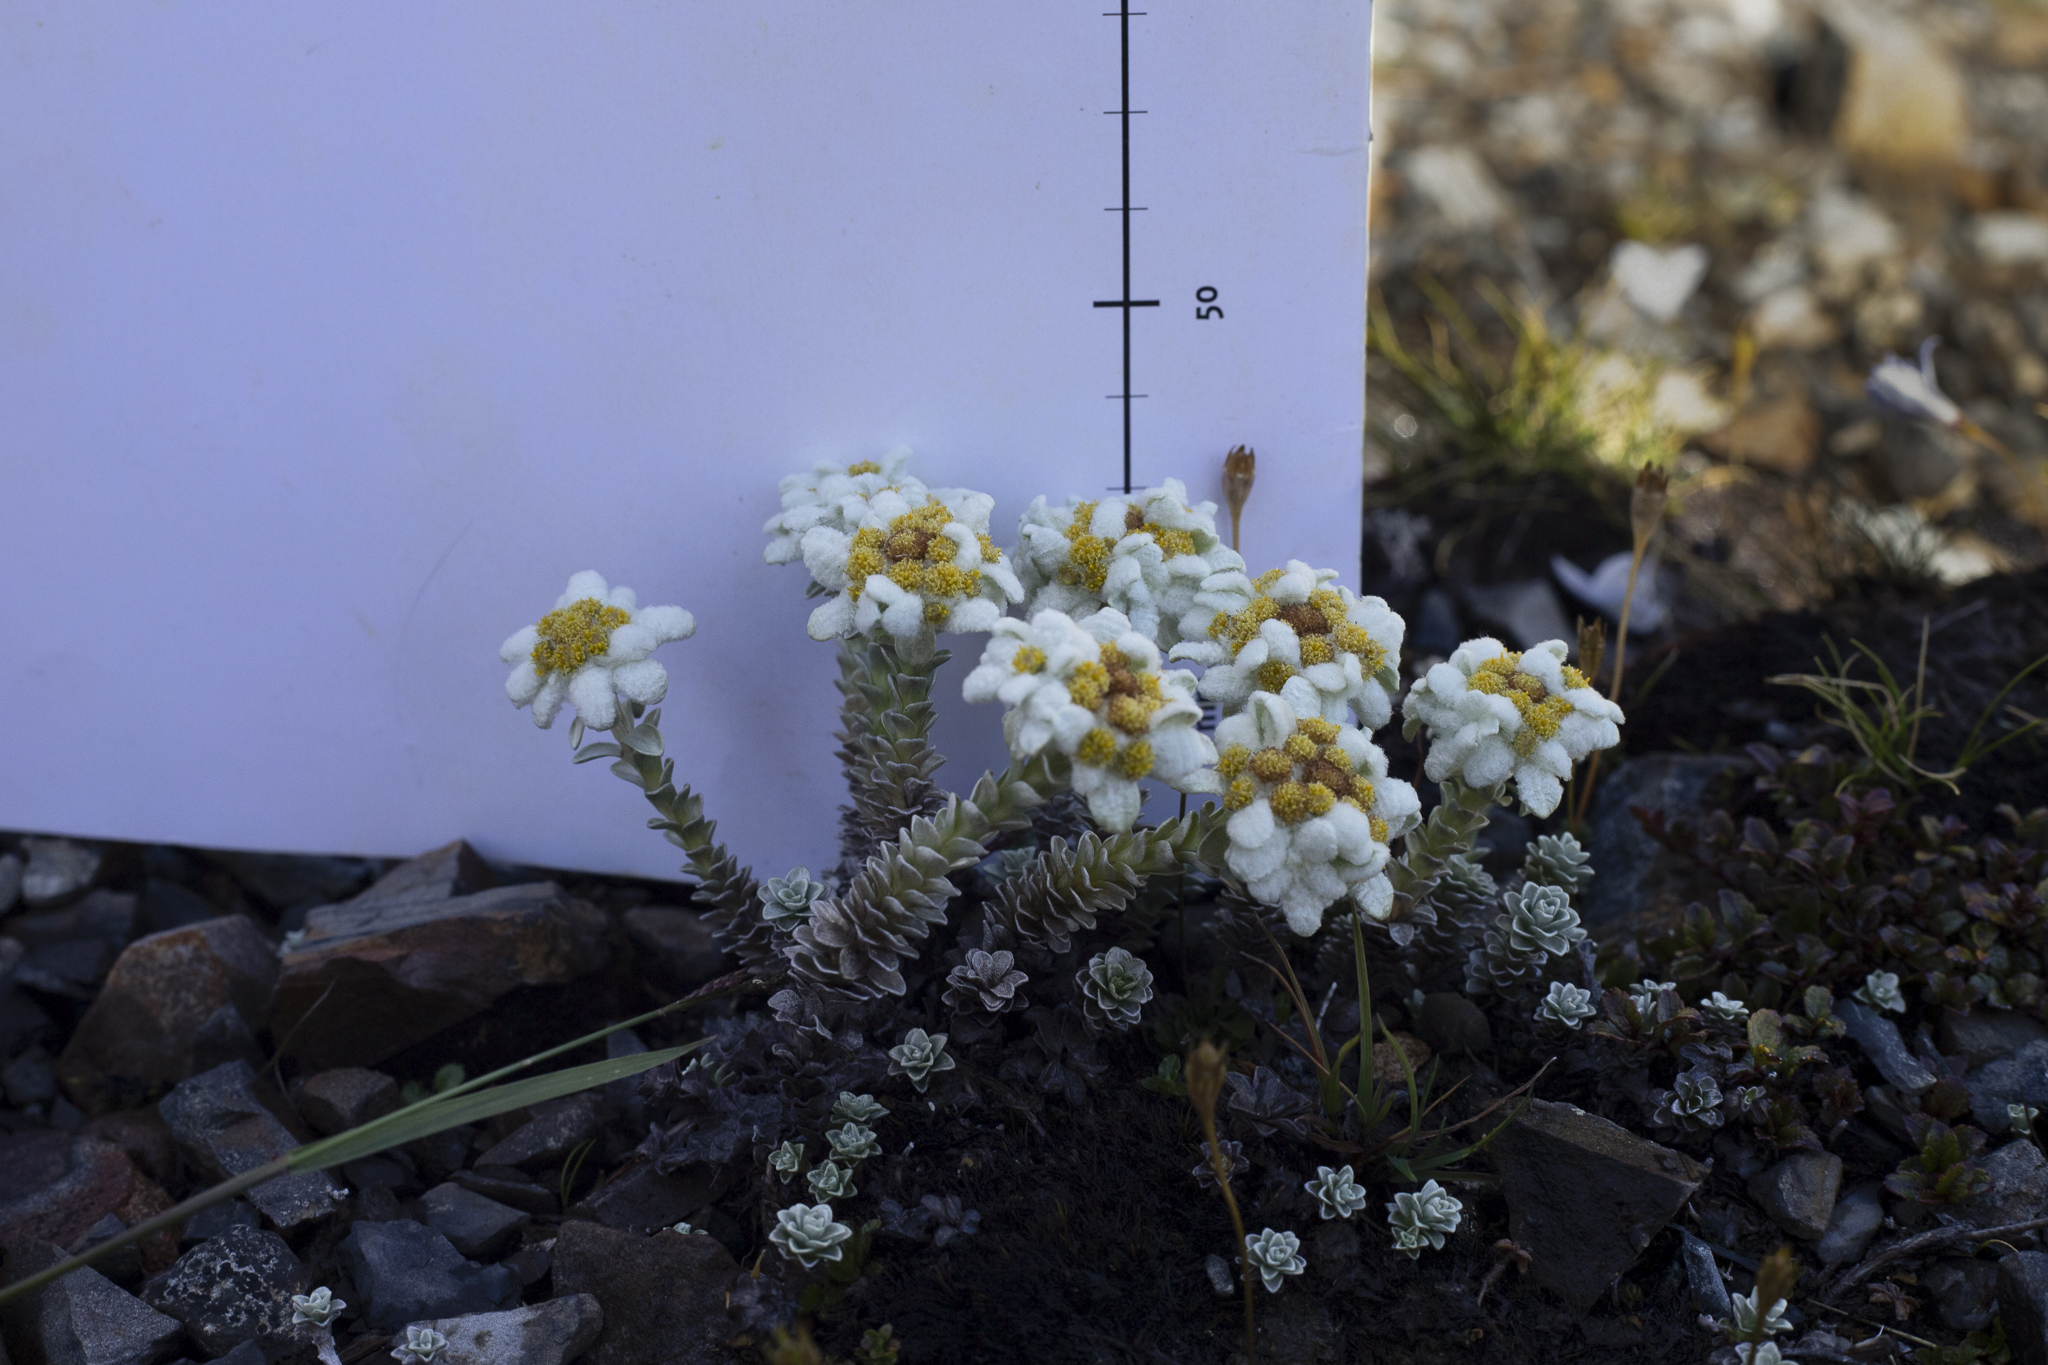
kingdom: Plantae
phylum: Tracheophyta
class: Magnoliopsida
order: Asterales
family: Asteraceae
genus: Leucogenes
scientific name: Leucogenes grandiceps
